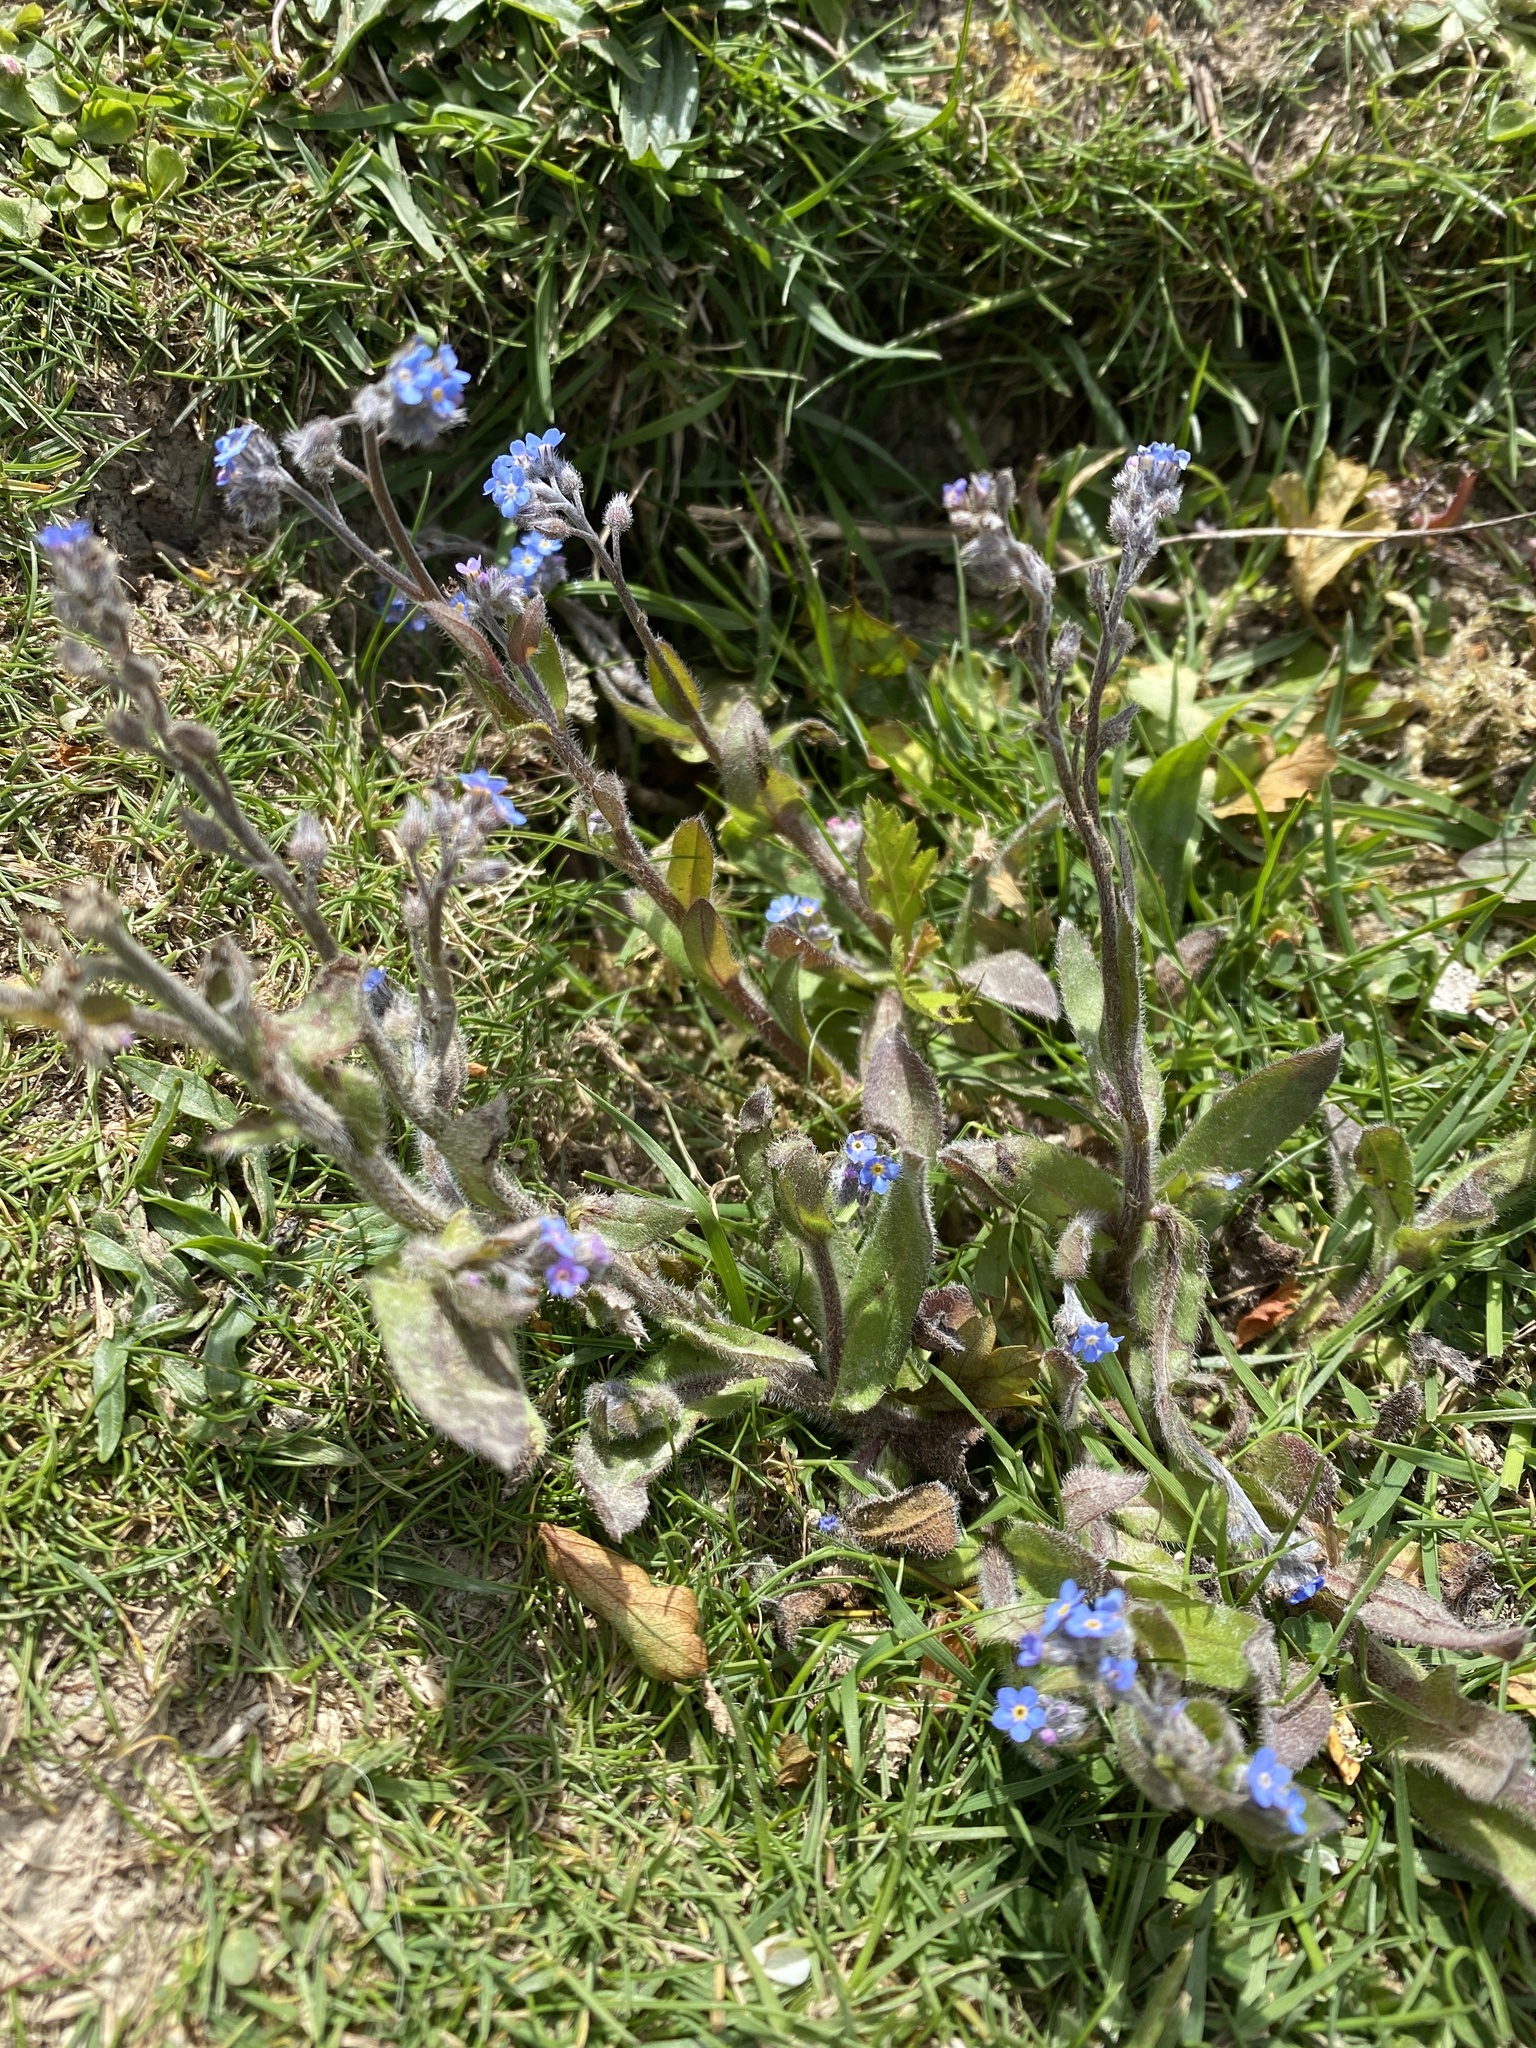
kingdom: Plantae
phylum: Tracheophyta
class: Magnoliopsida
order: Boraginales
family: Boraginaceae
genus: Myosotis
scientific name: Myosotis arvensis
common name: Field forget-me-not
